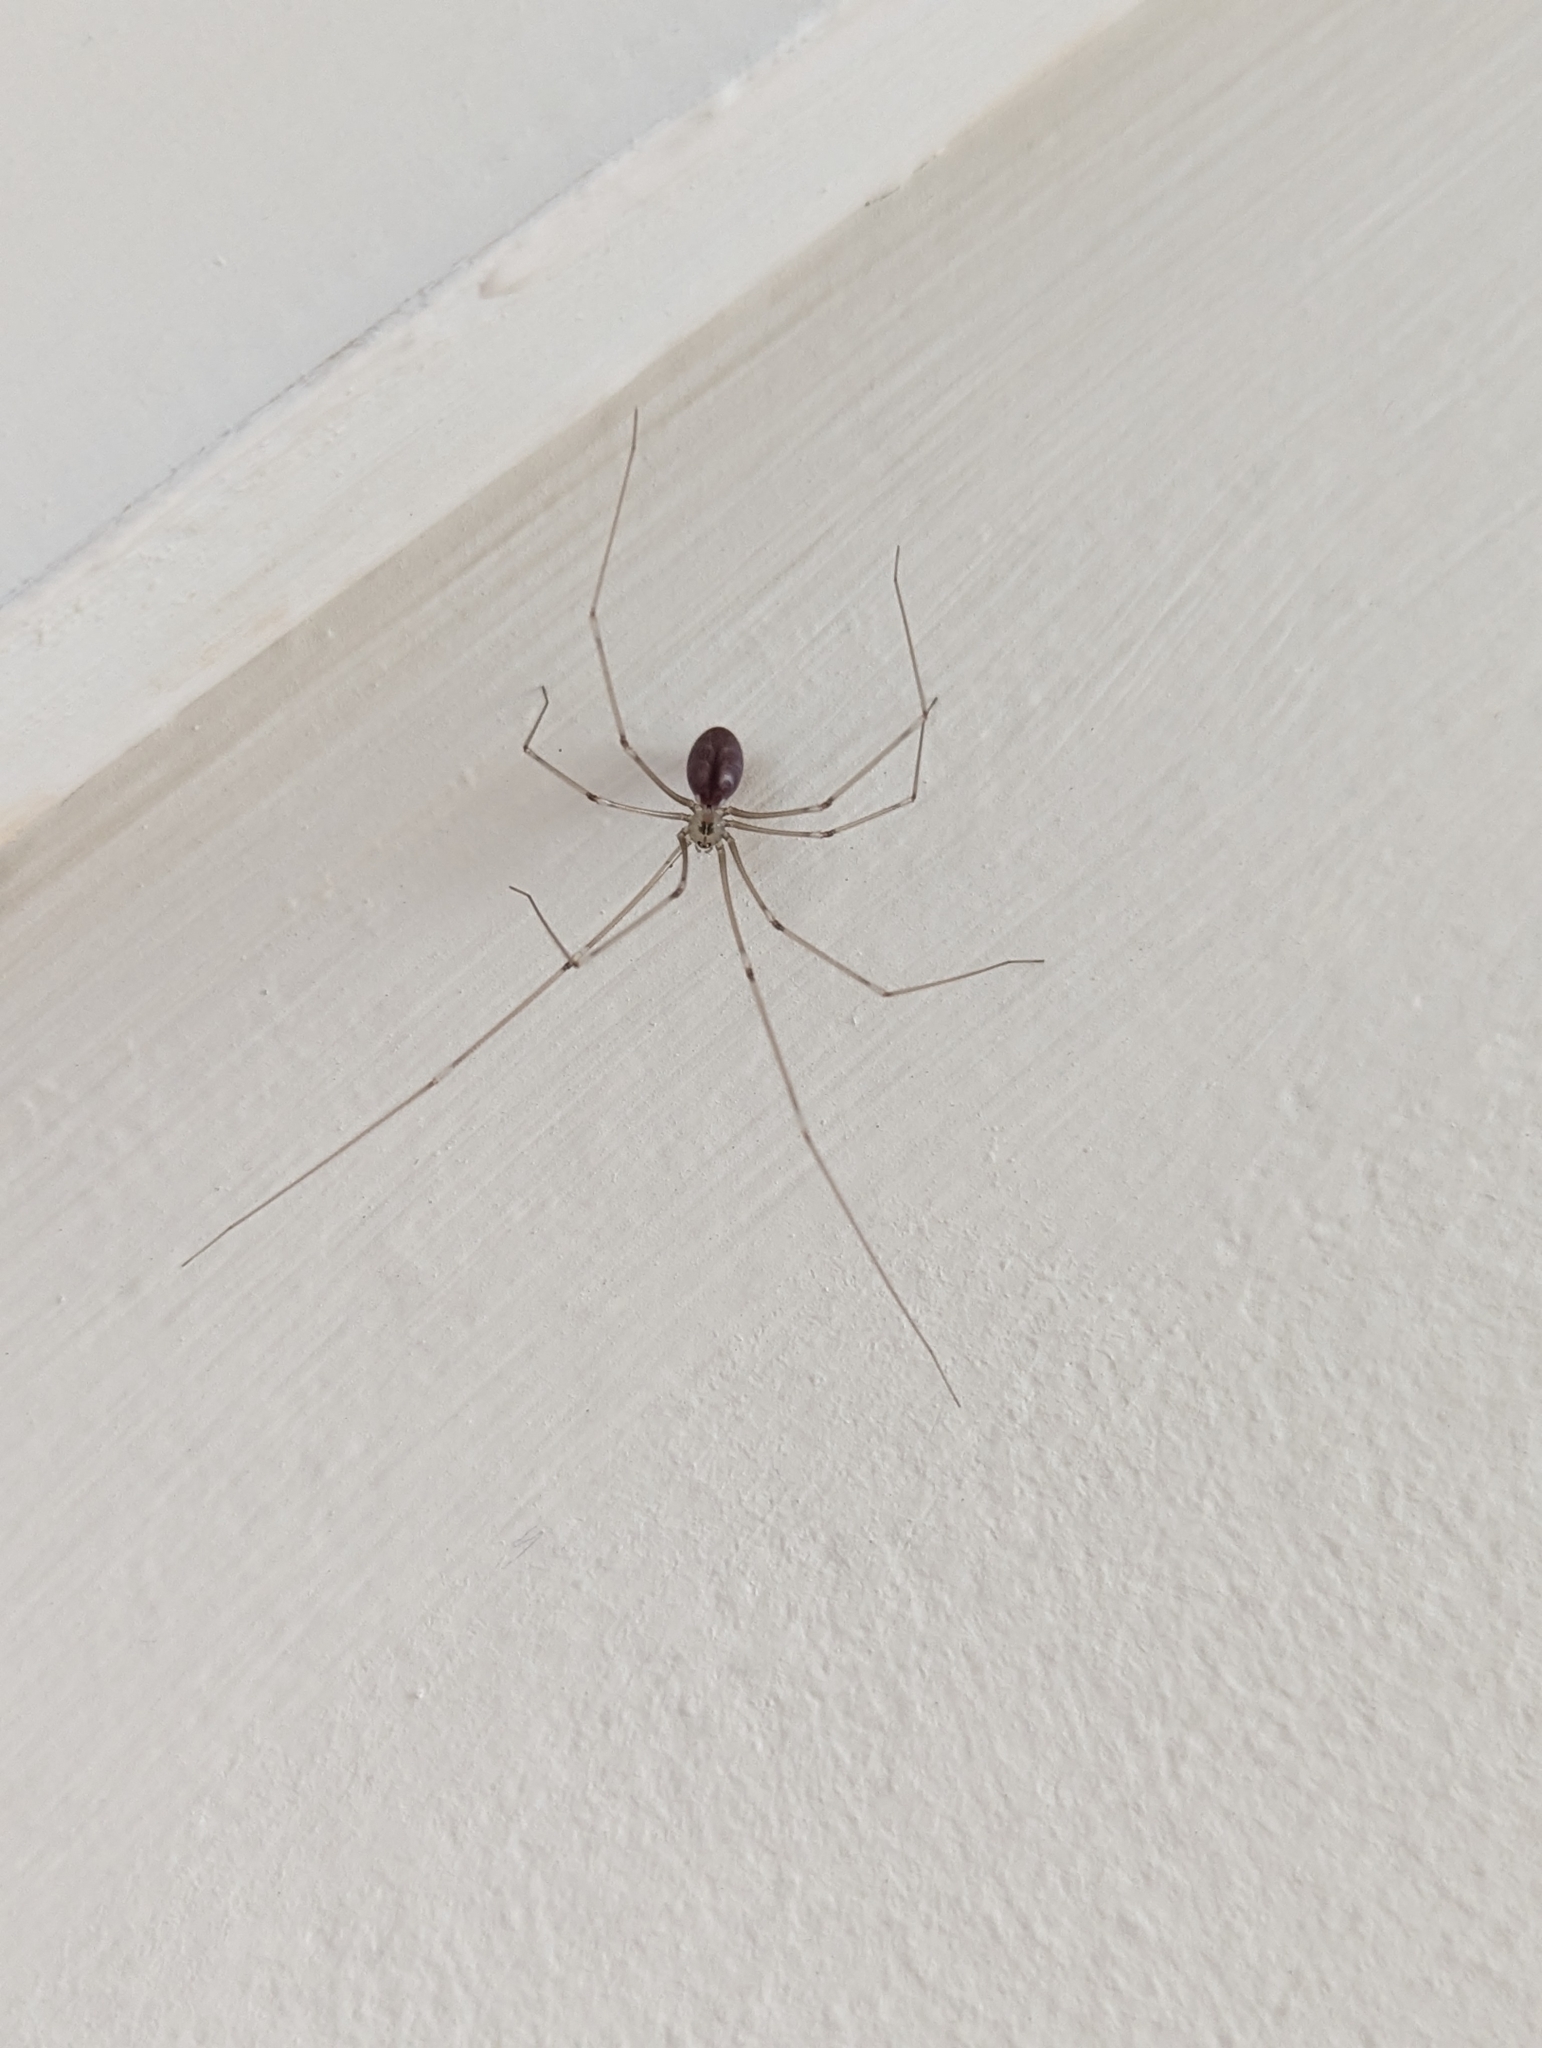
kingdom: Animalia
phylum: Arthropoda
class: Arachnida
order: Araneae
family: Pholcidae
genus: Pholcus
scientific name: Pholcus phalangioides
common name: Longbodied cellar spider
